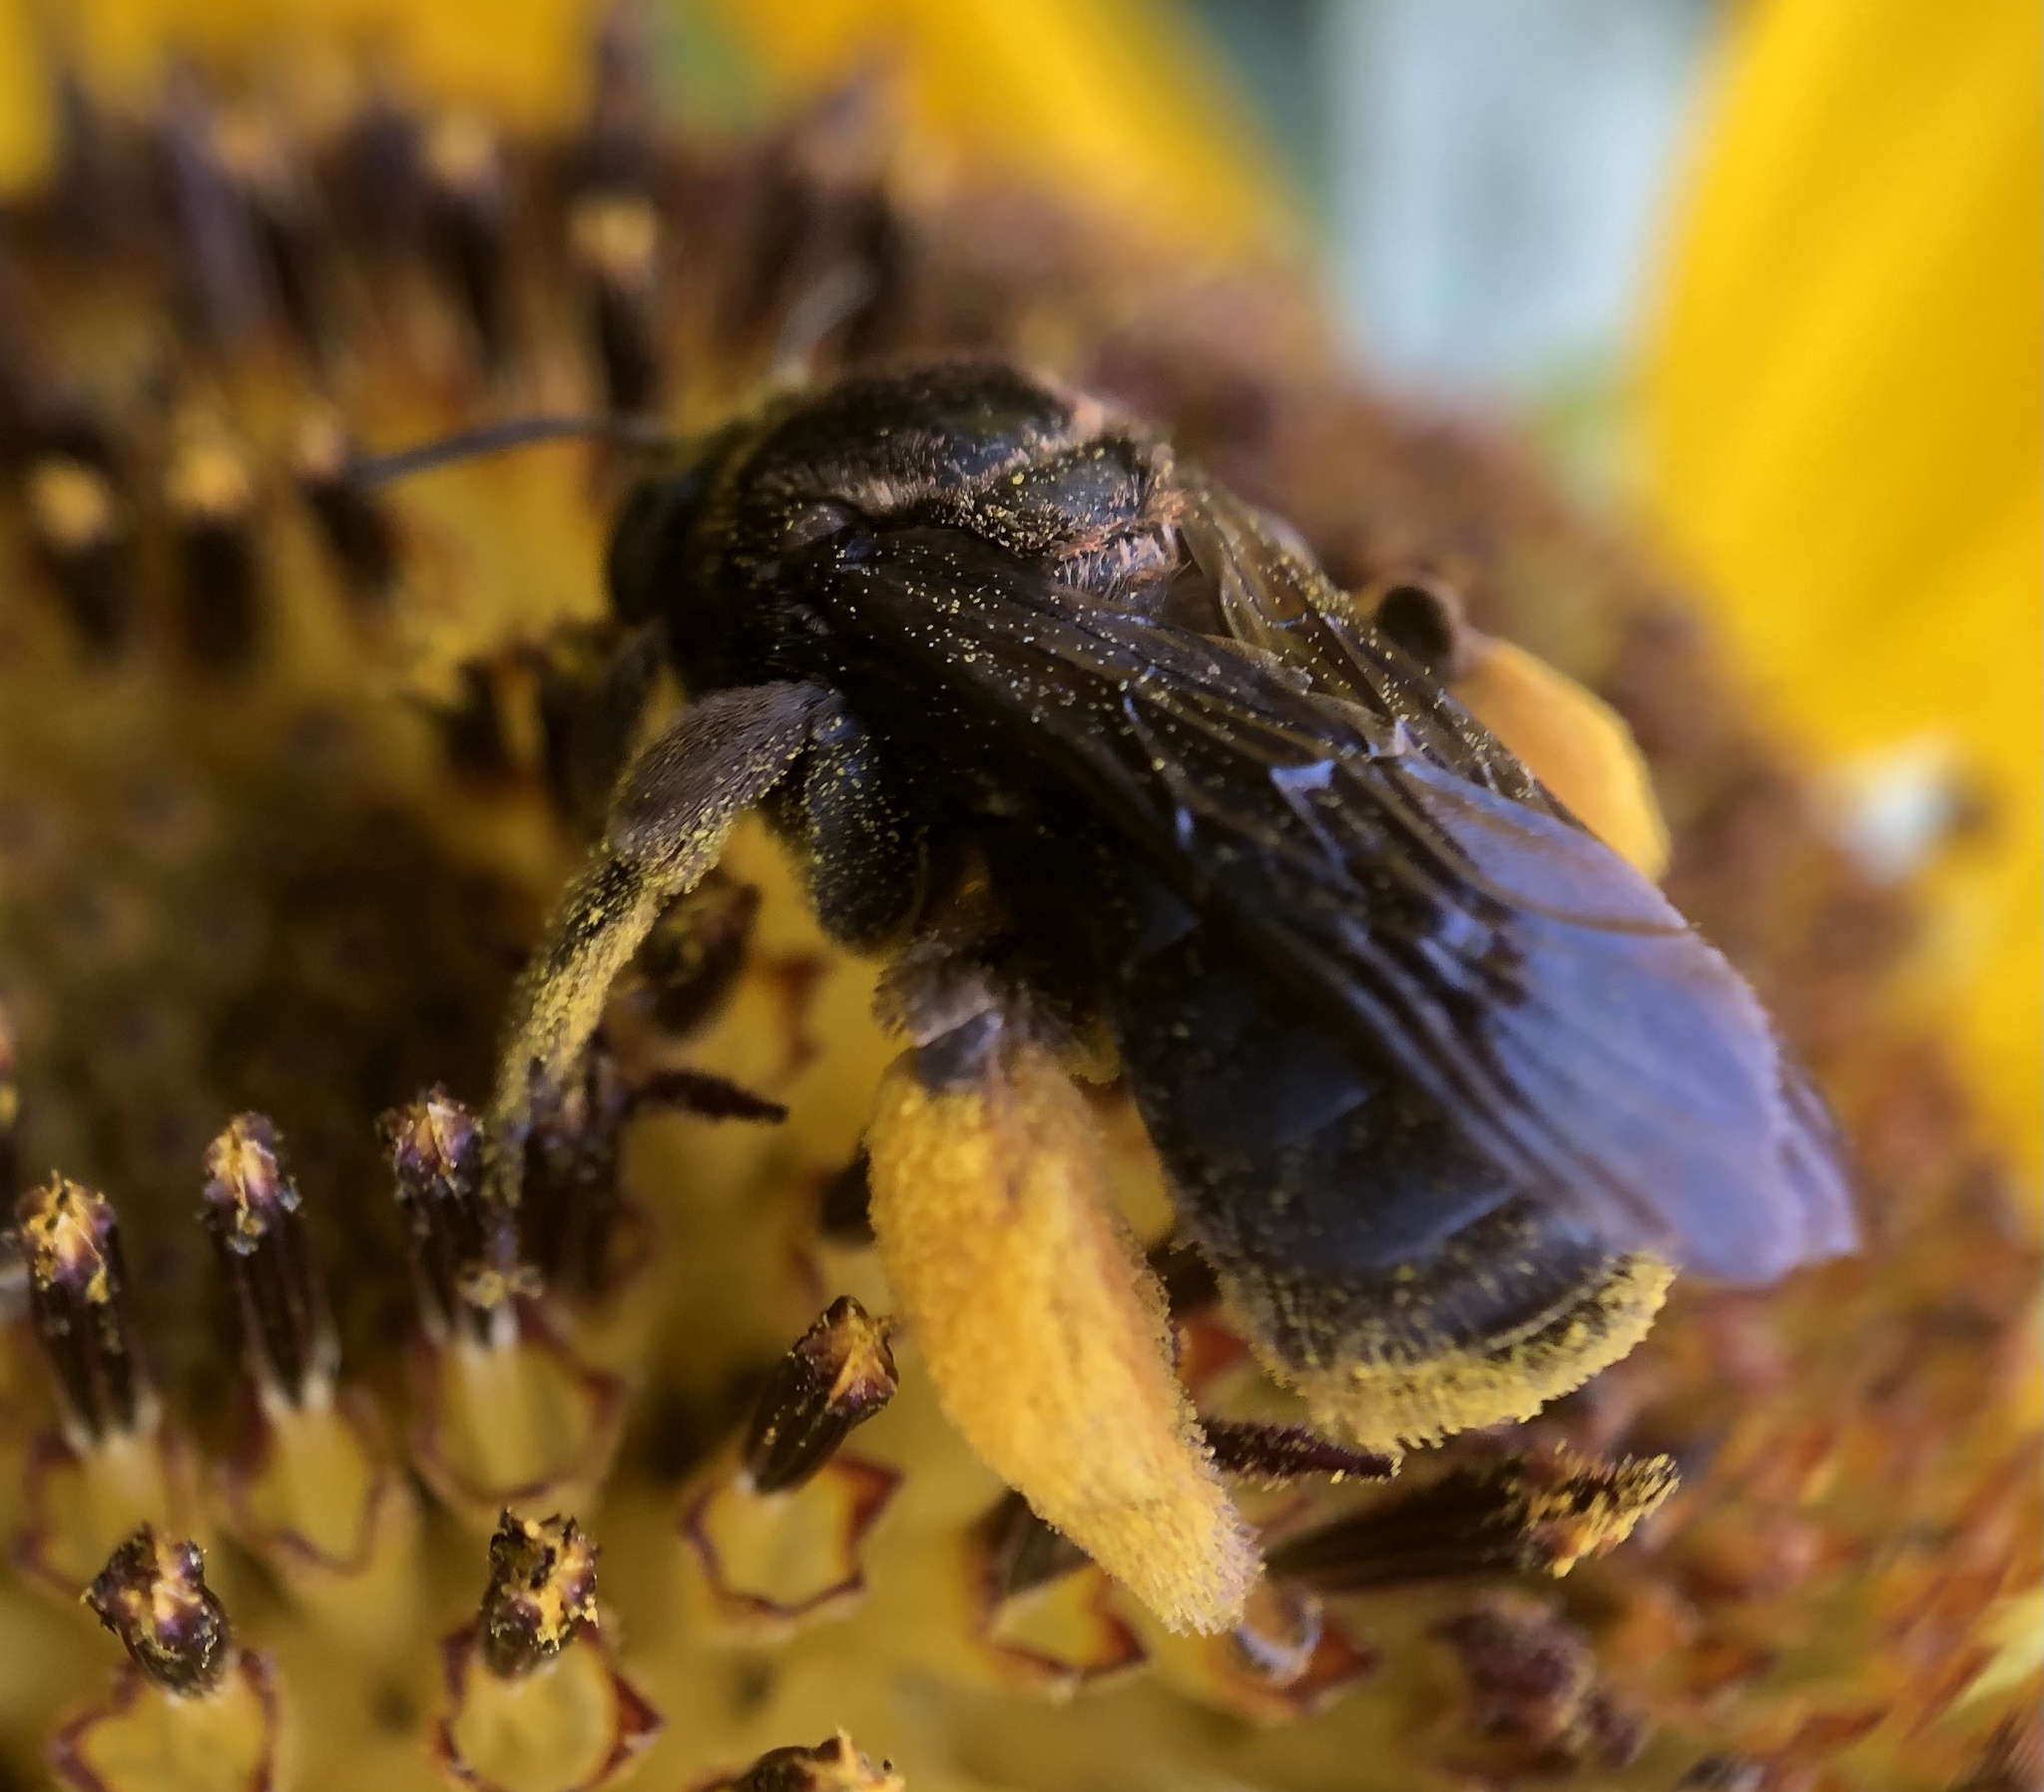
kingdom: Animalia
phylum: Arthropoda
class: Insecta
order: Hymenoptera
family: Apidae
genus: Svastra
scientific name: Svastra obliqua
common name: Oblique longhorn
